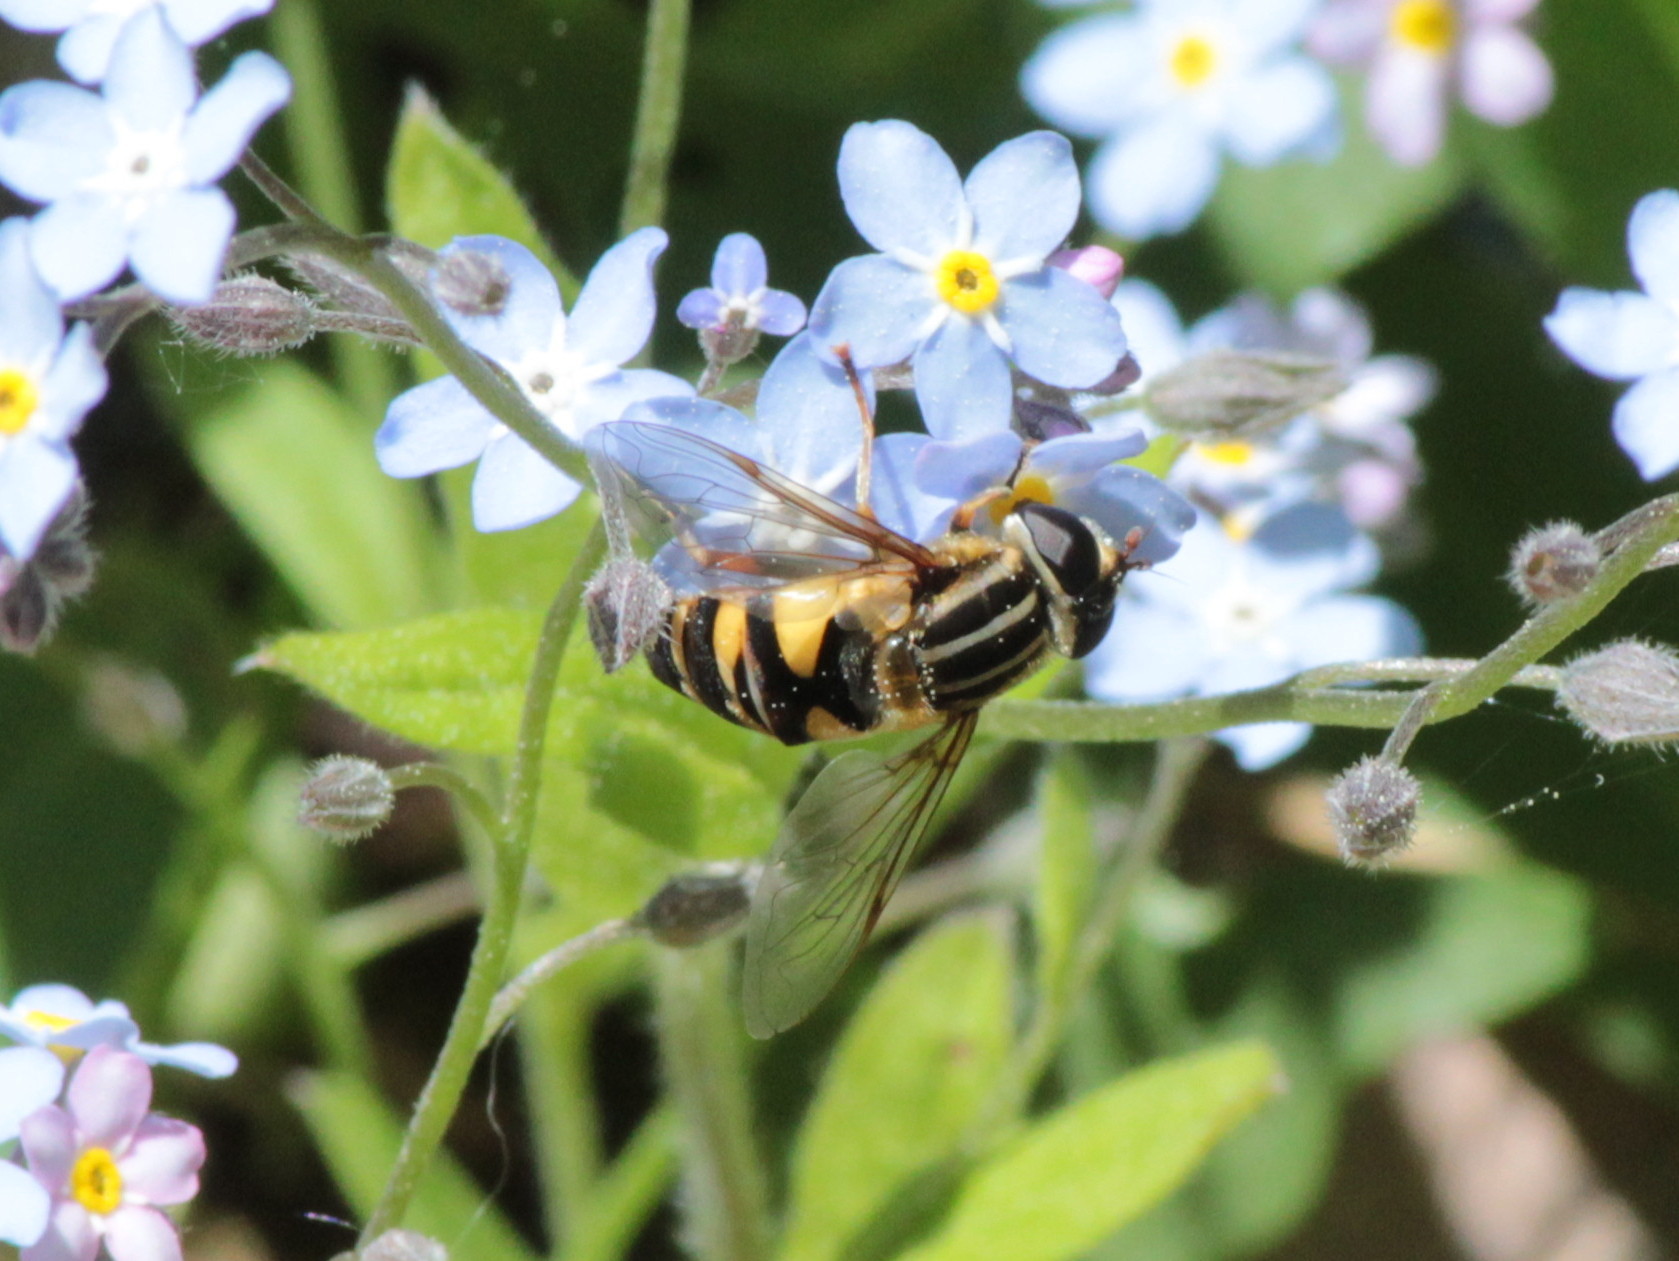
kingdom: Animalia
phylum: Arthropoda
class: Insecta
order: Diptera
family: Syrphidae
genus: Helophilus
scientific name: Helophilus fasciatus
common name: Narrow-headed marsh fly
